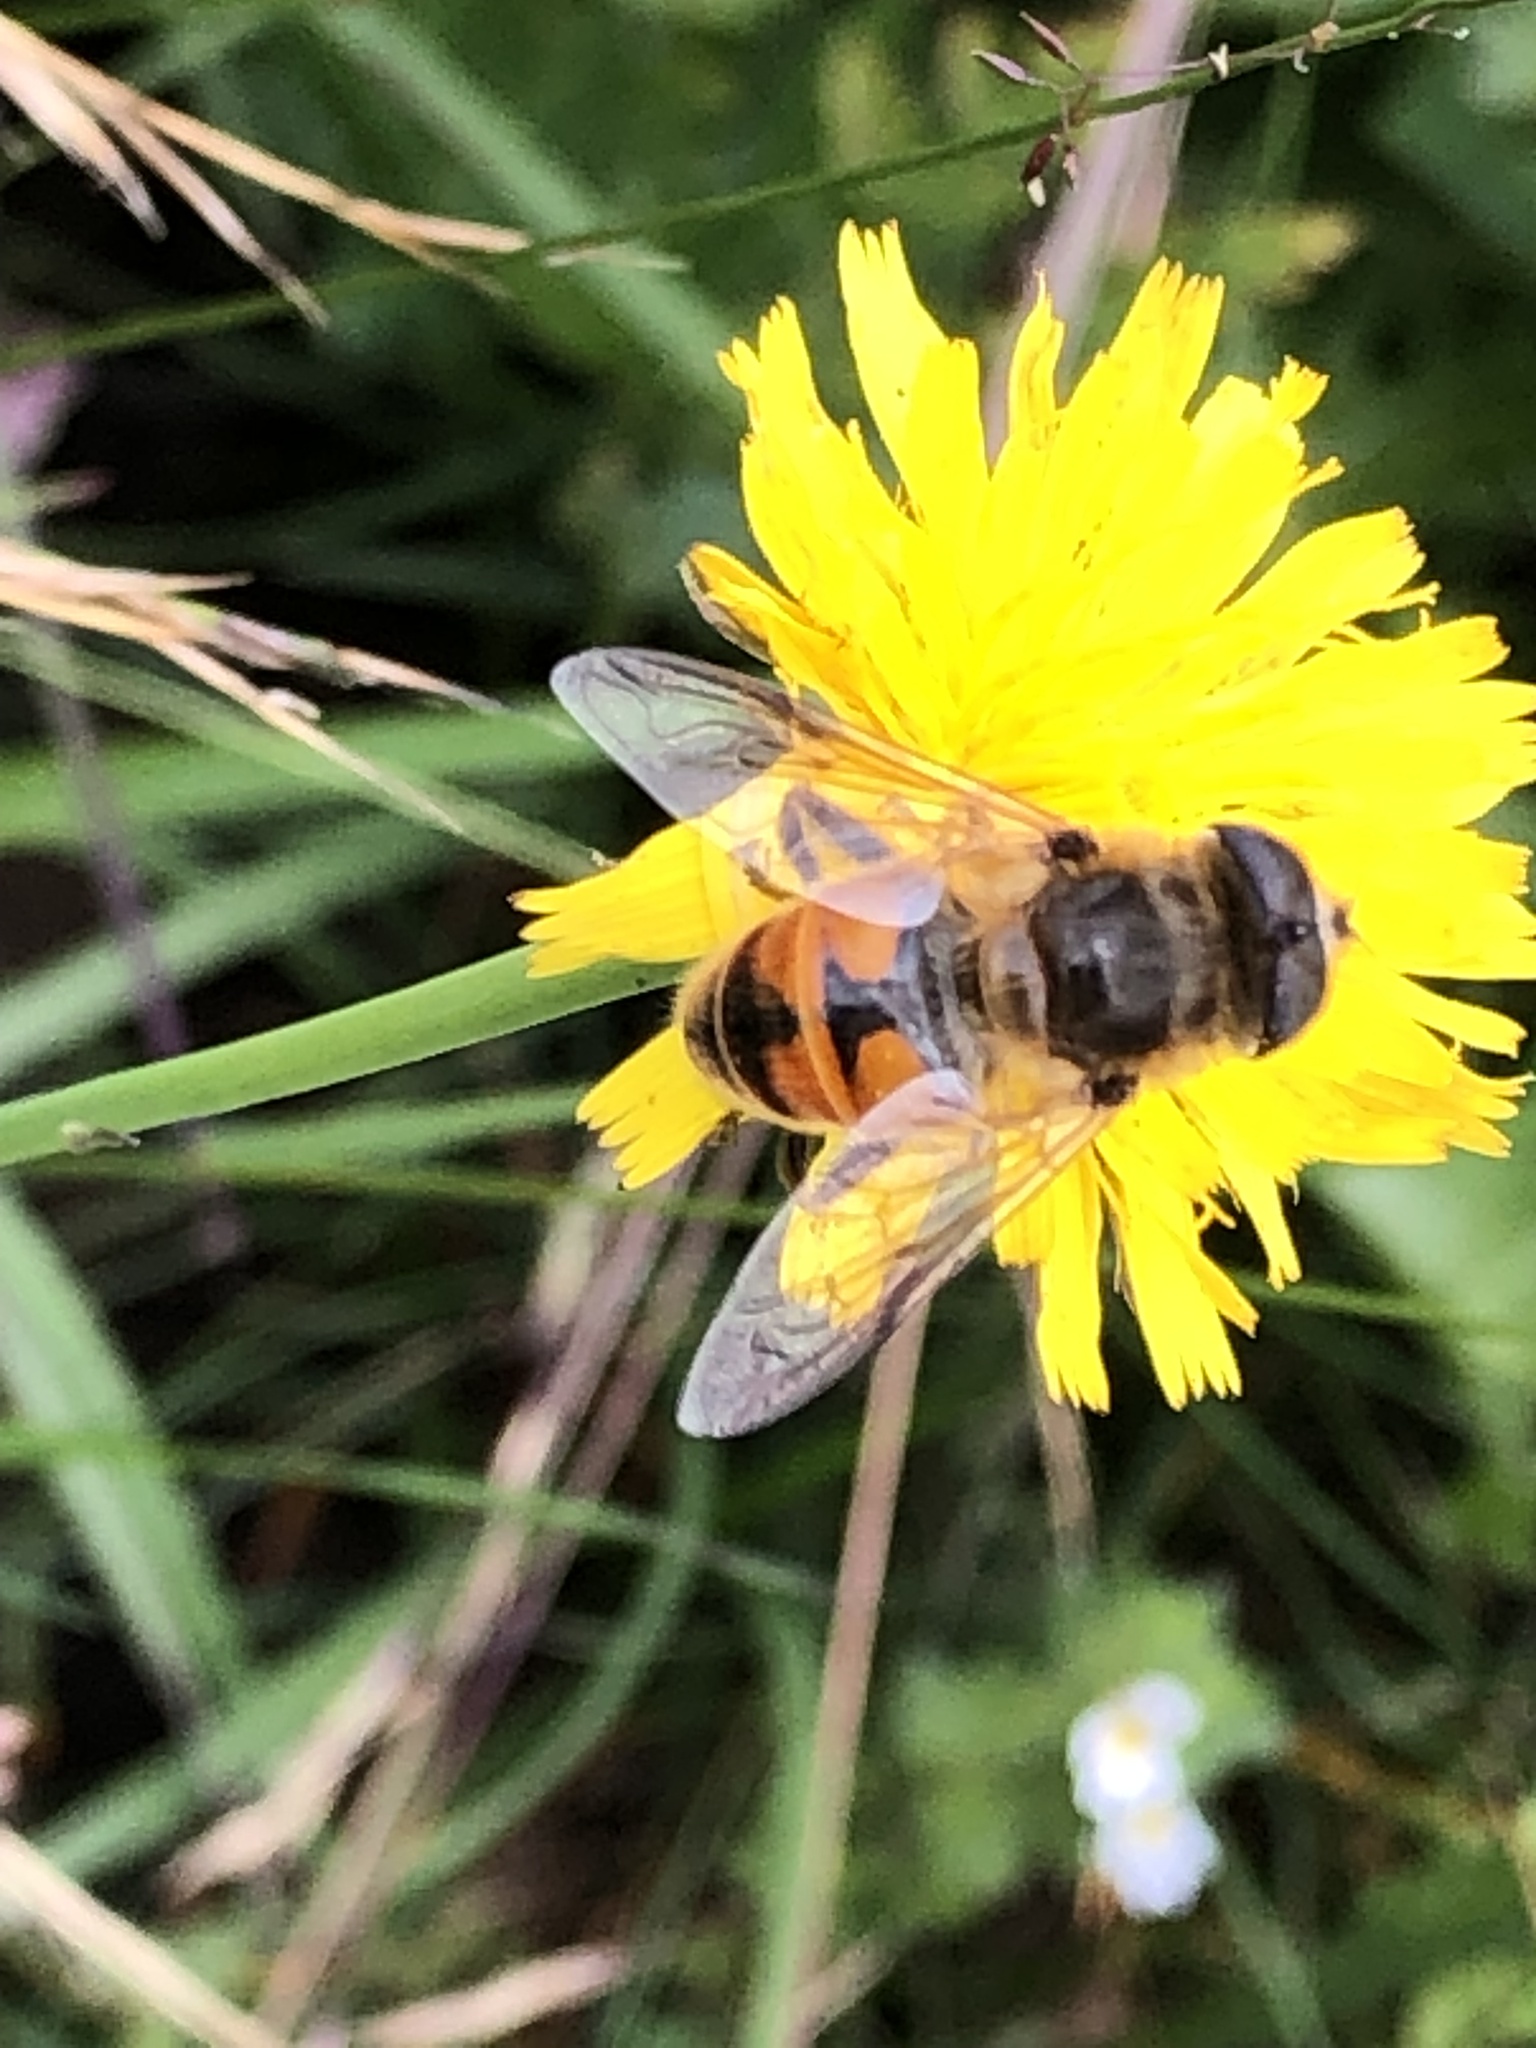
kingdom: Animalia
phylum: Arthropoda
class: Insecta
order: Diptera
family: Syrphidae
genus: Eristalis
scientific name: Eristalis tenax
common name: Drone fly
